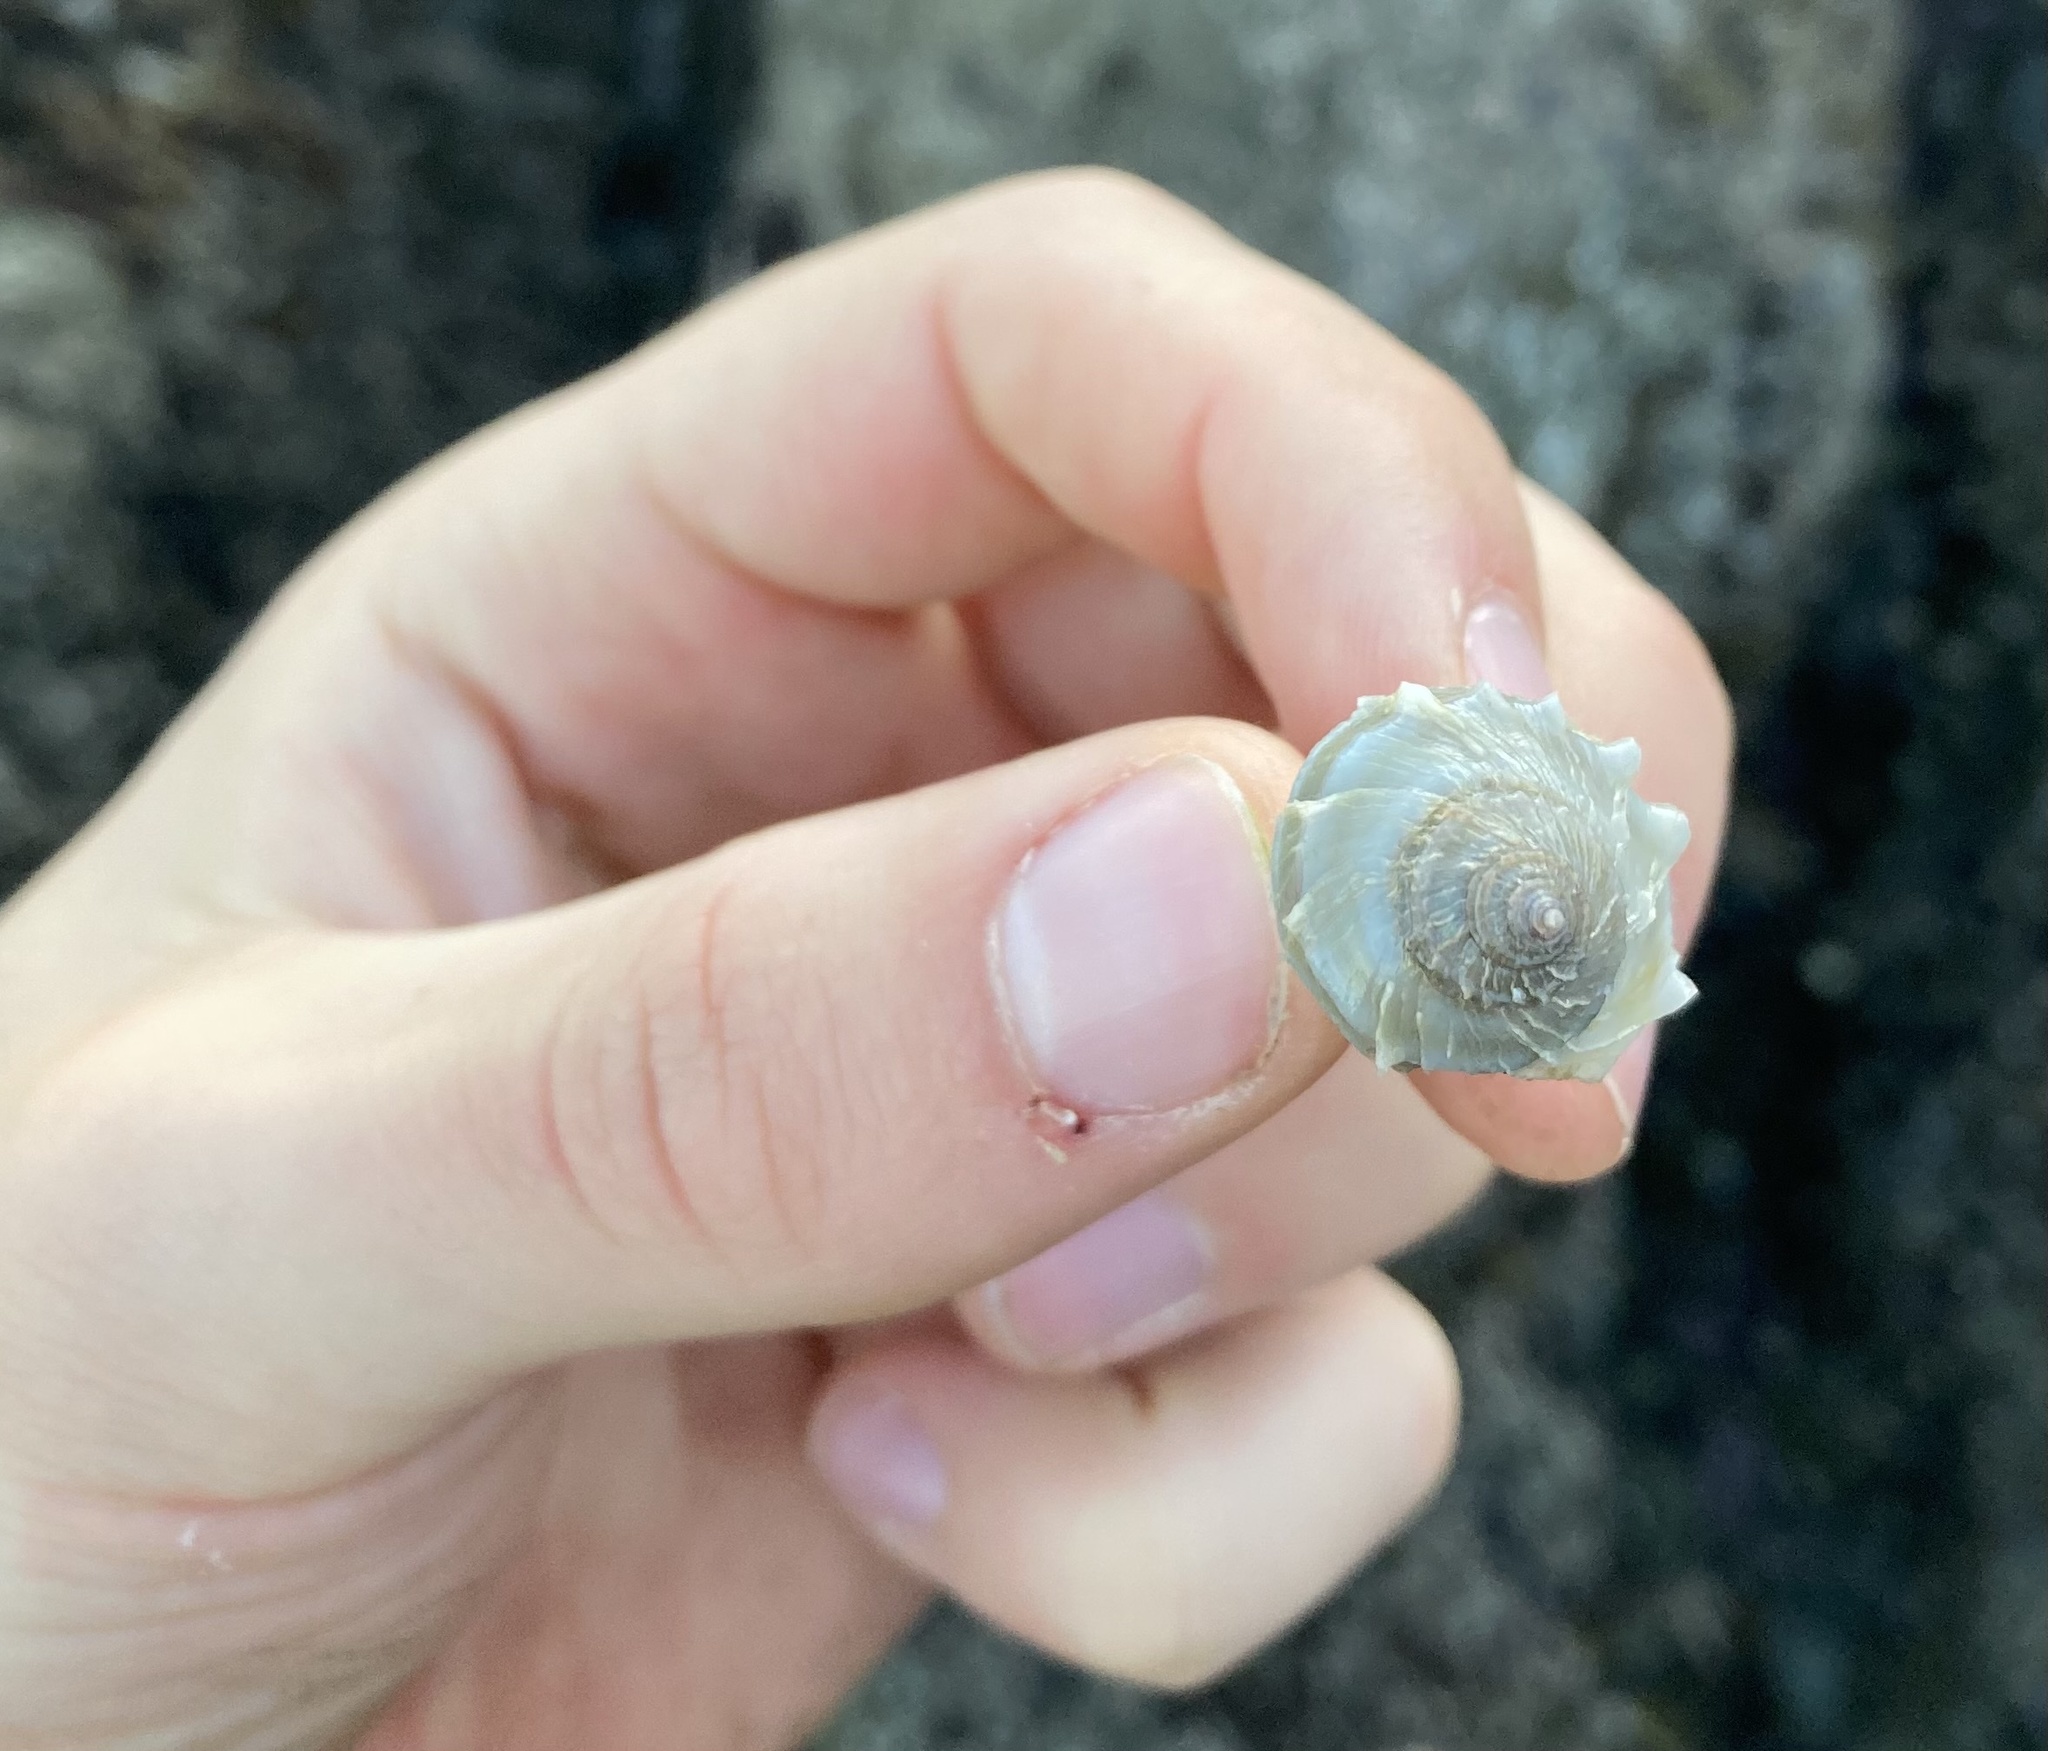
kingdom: Animalia
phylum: Mollusca
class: Gastropoda
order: Neogastropoda
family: Muricidae
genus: Nucella
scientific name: Nucella lamellosa
